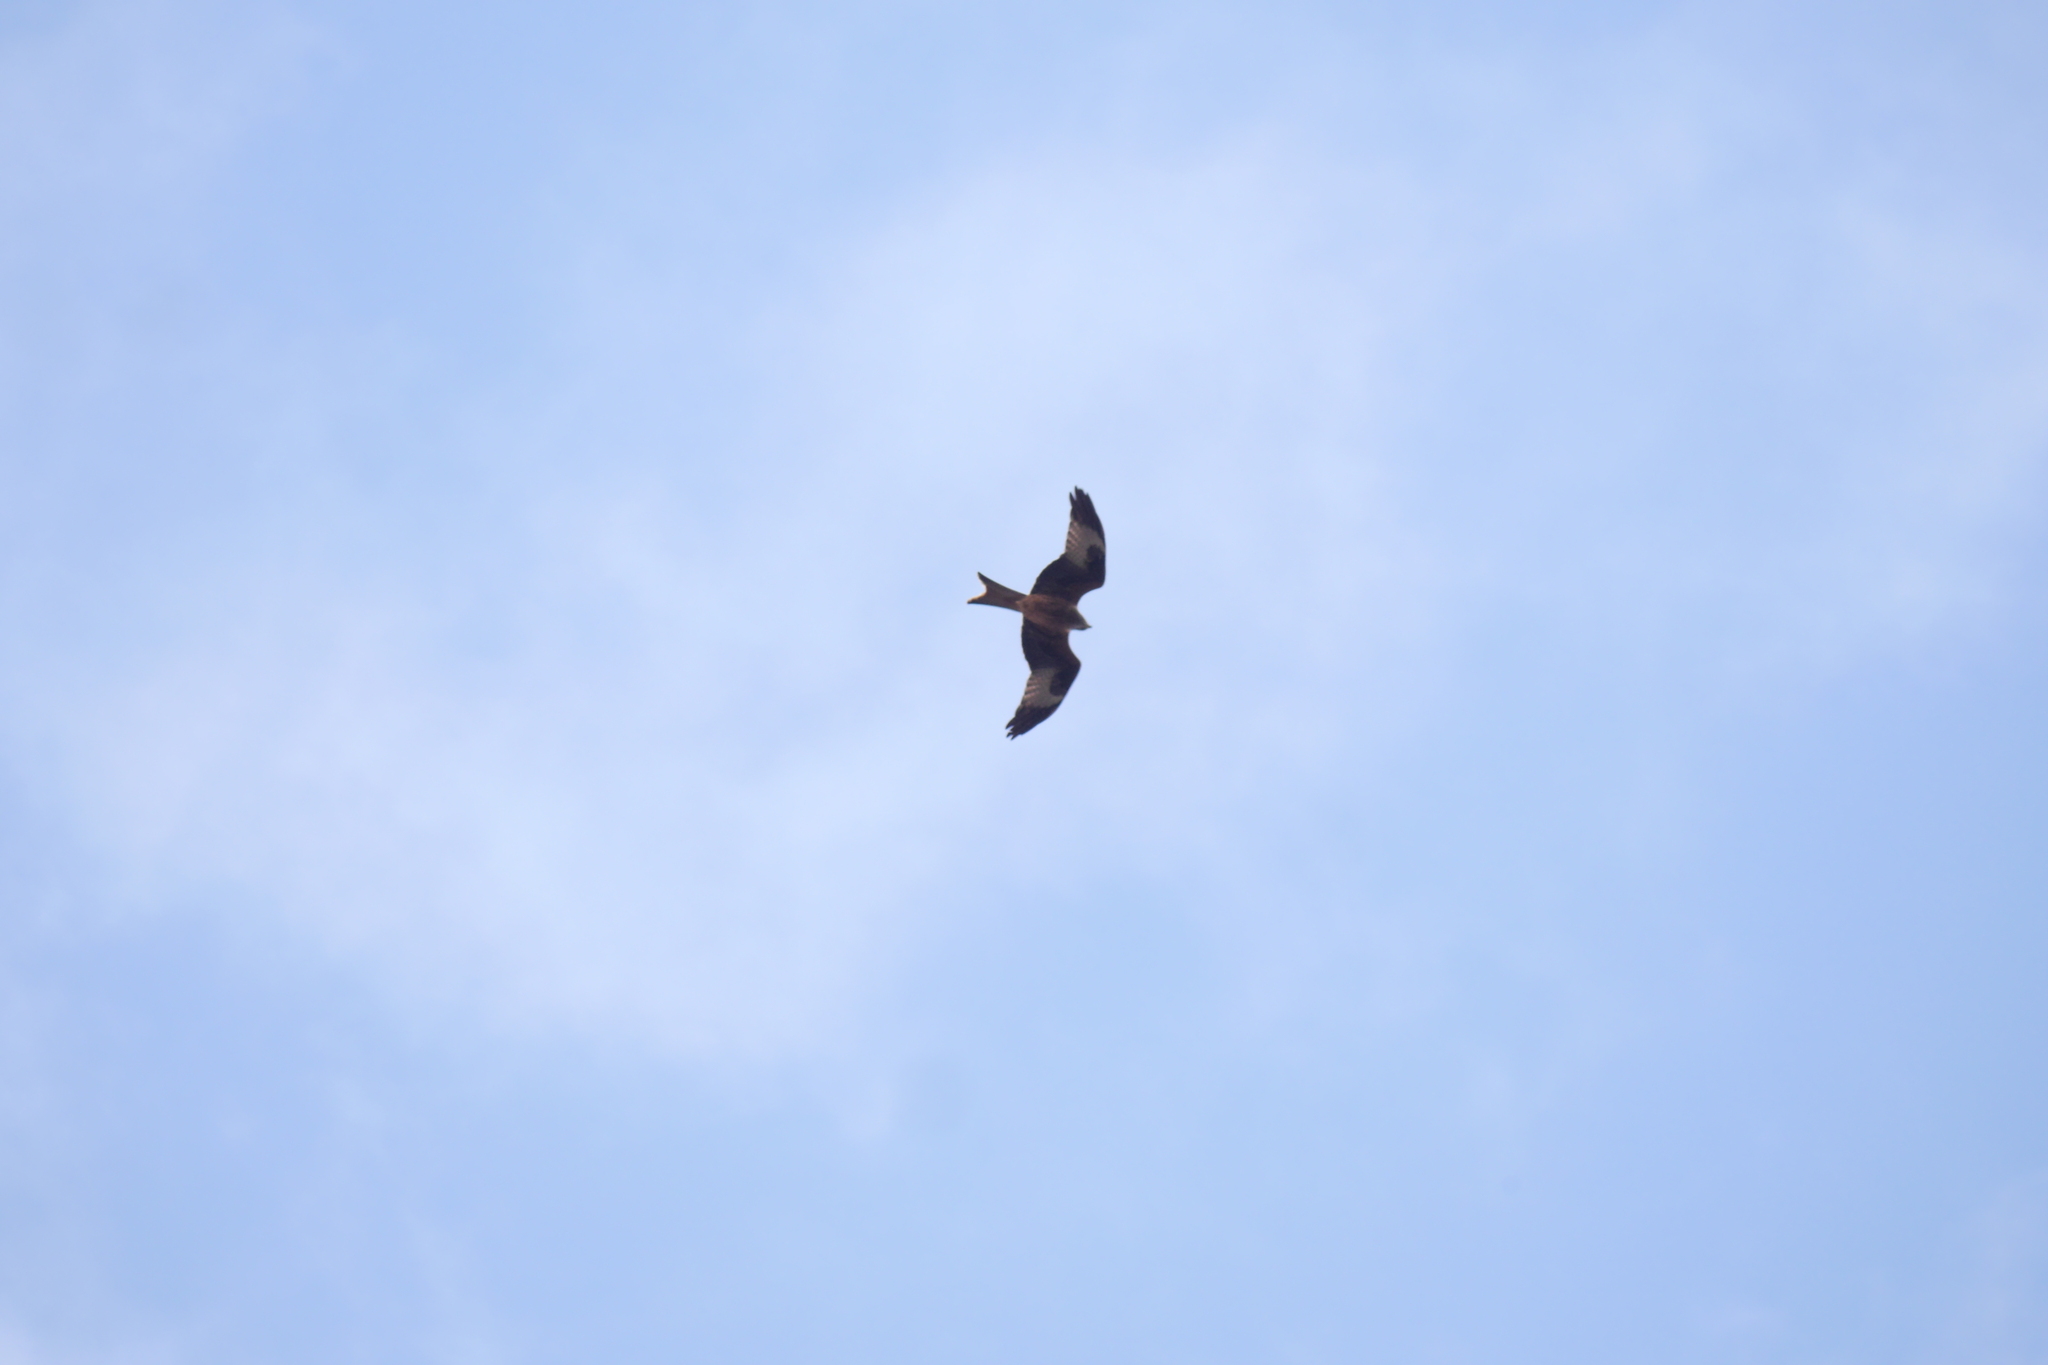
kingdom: Animalia
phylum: Chordata
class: Aves
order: Accipitriformes
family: Accipitridae
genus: Milvus
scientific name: Milvus milvus
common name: Red kite
